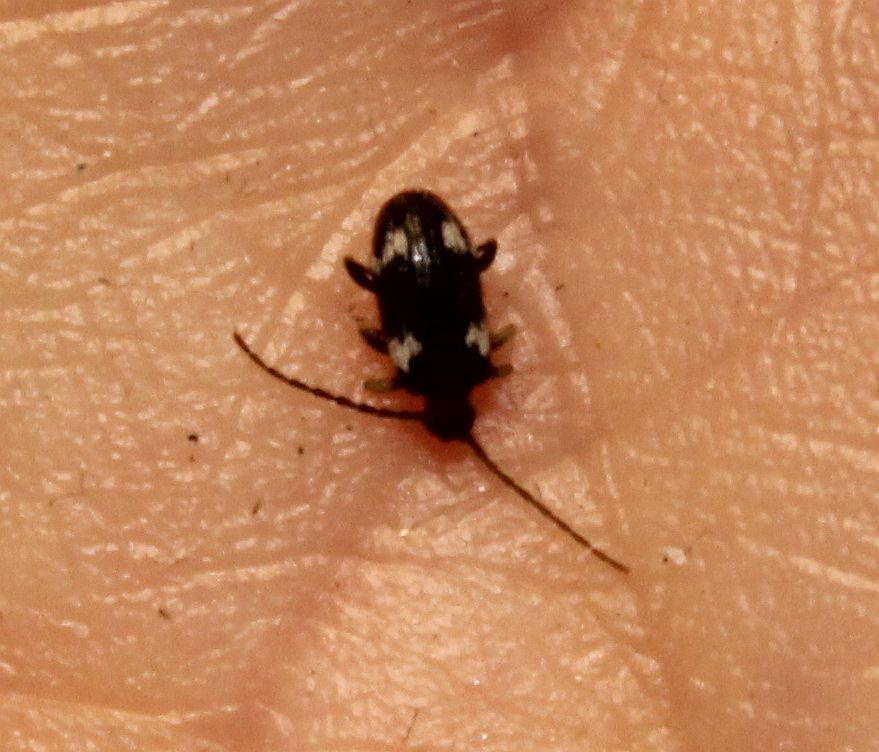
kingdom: Animalia
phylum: Arthropoda
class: Insecta
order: Coleoptera
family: Ptinidae
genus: Ptinus
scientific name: Ptinus sexpunctatus
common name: Six-spotted spider beetle
